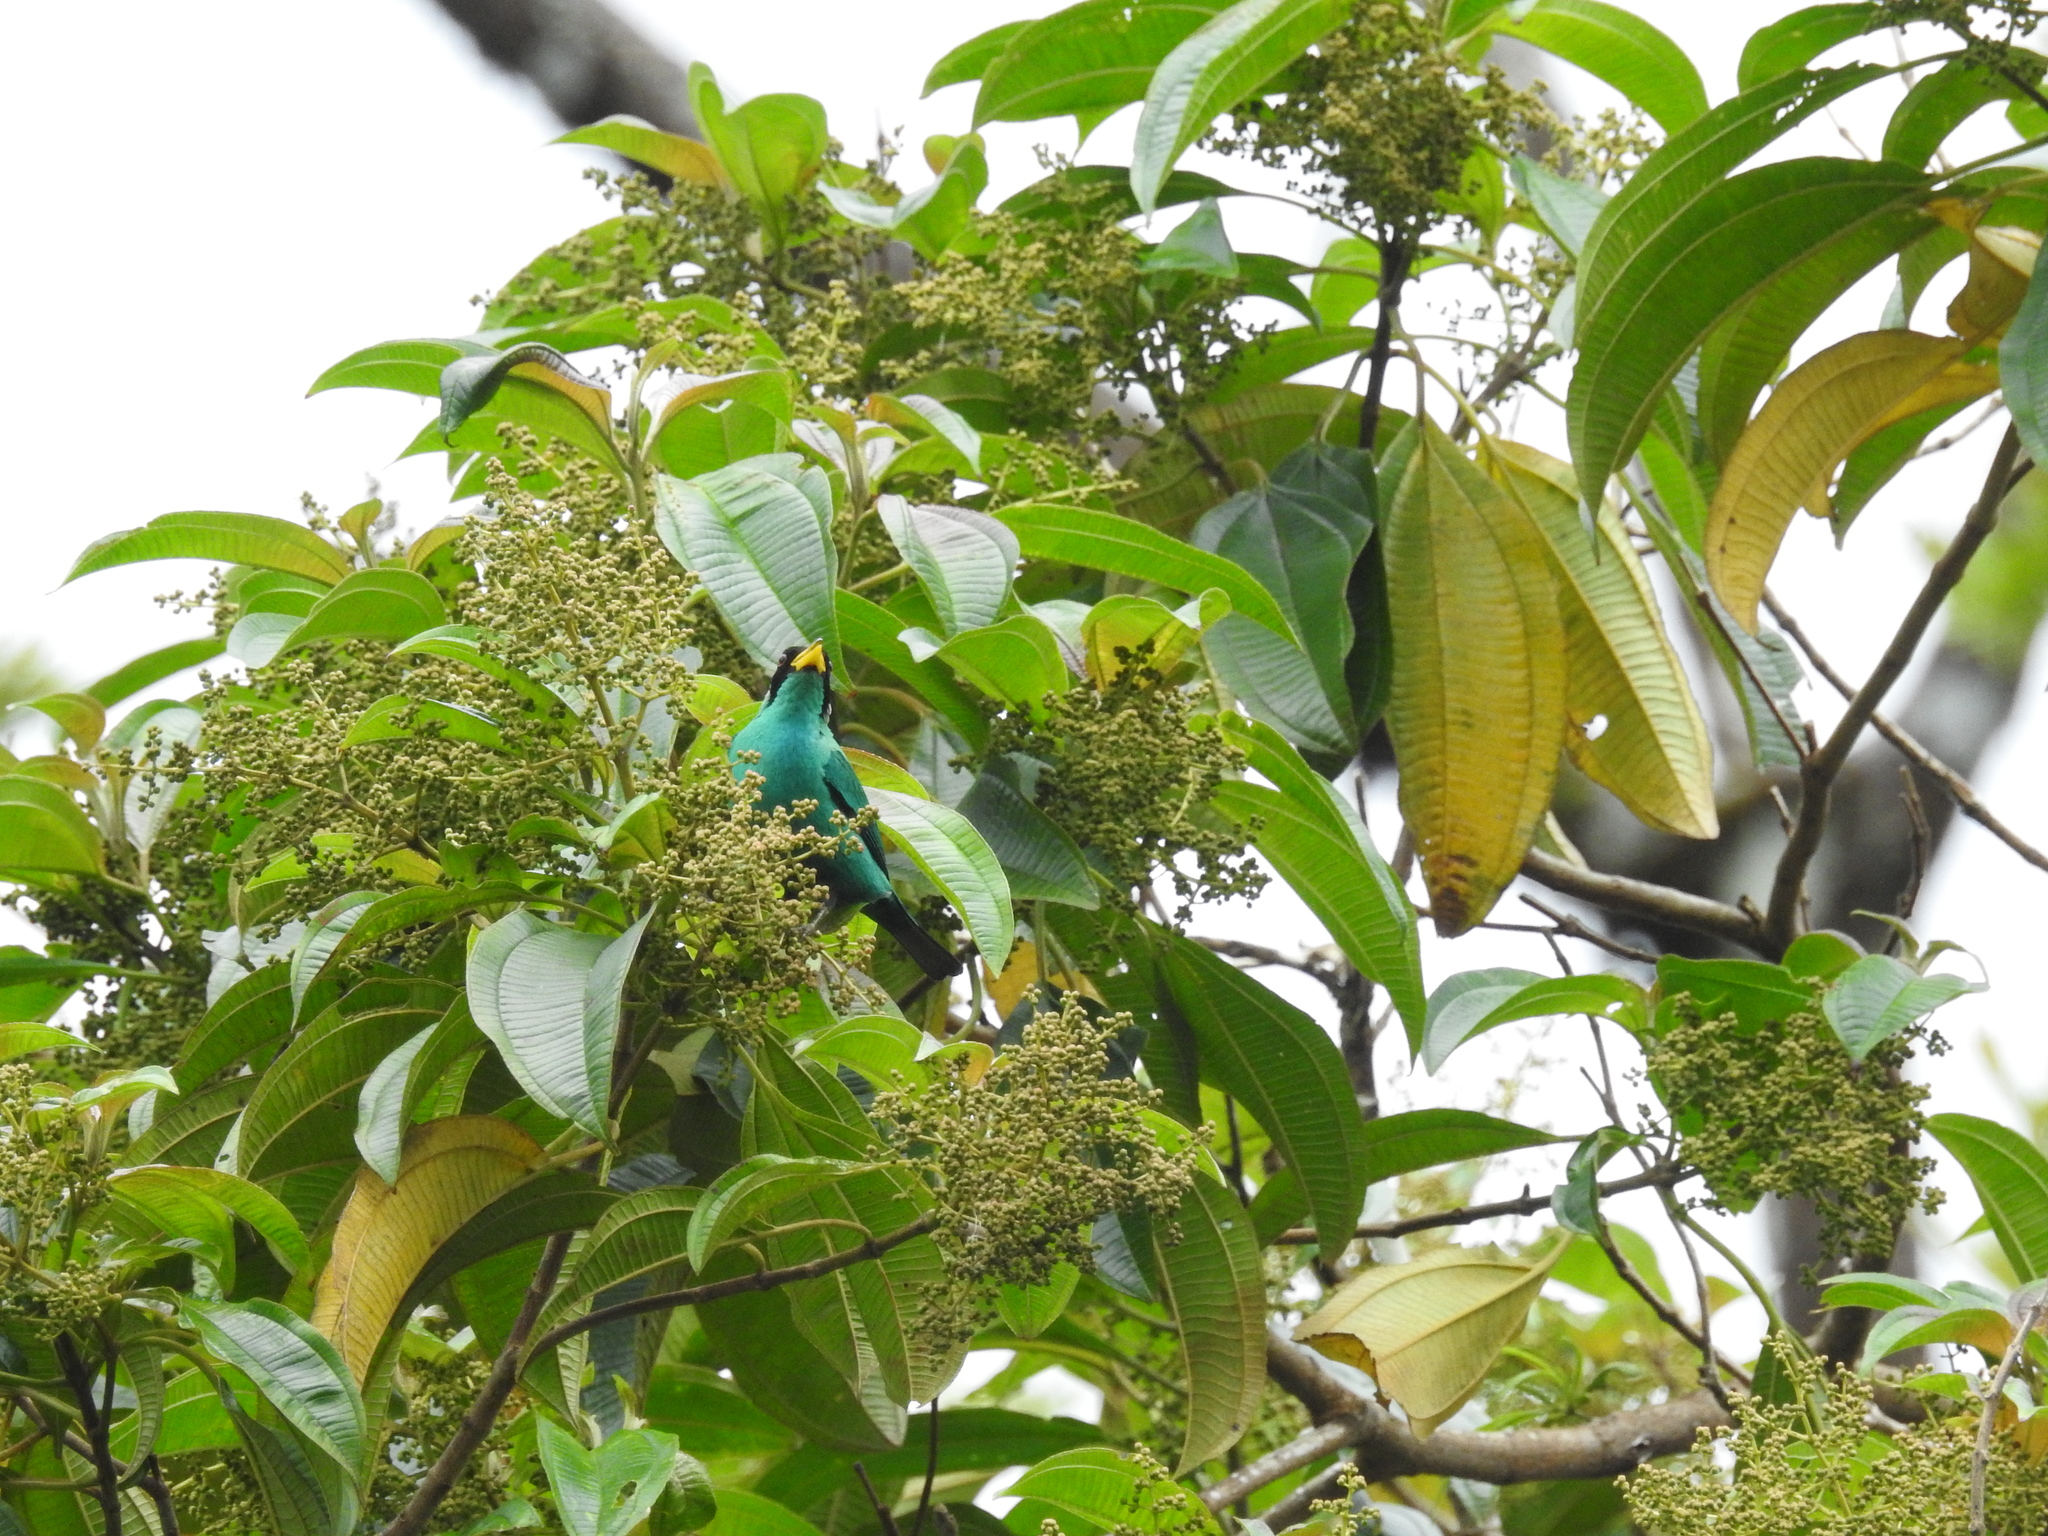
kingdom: Animalia
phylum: Chordata
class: Aves
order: Passeriformes
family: Thraupidae
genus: Chlorophanes
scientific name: Chlorophanes spiza
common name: Green honeycreeper
